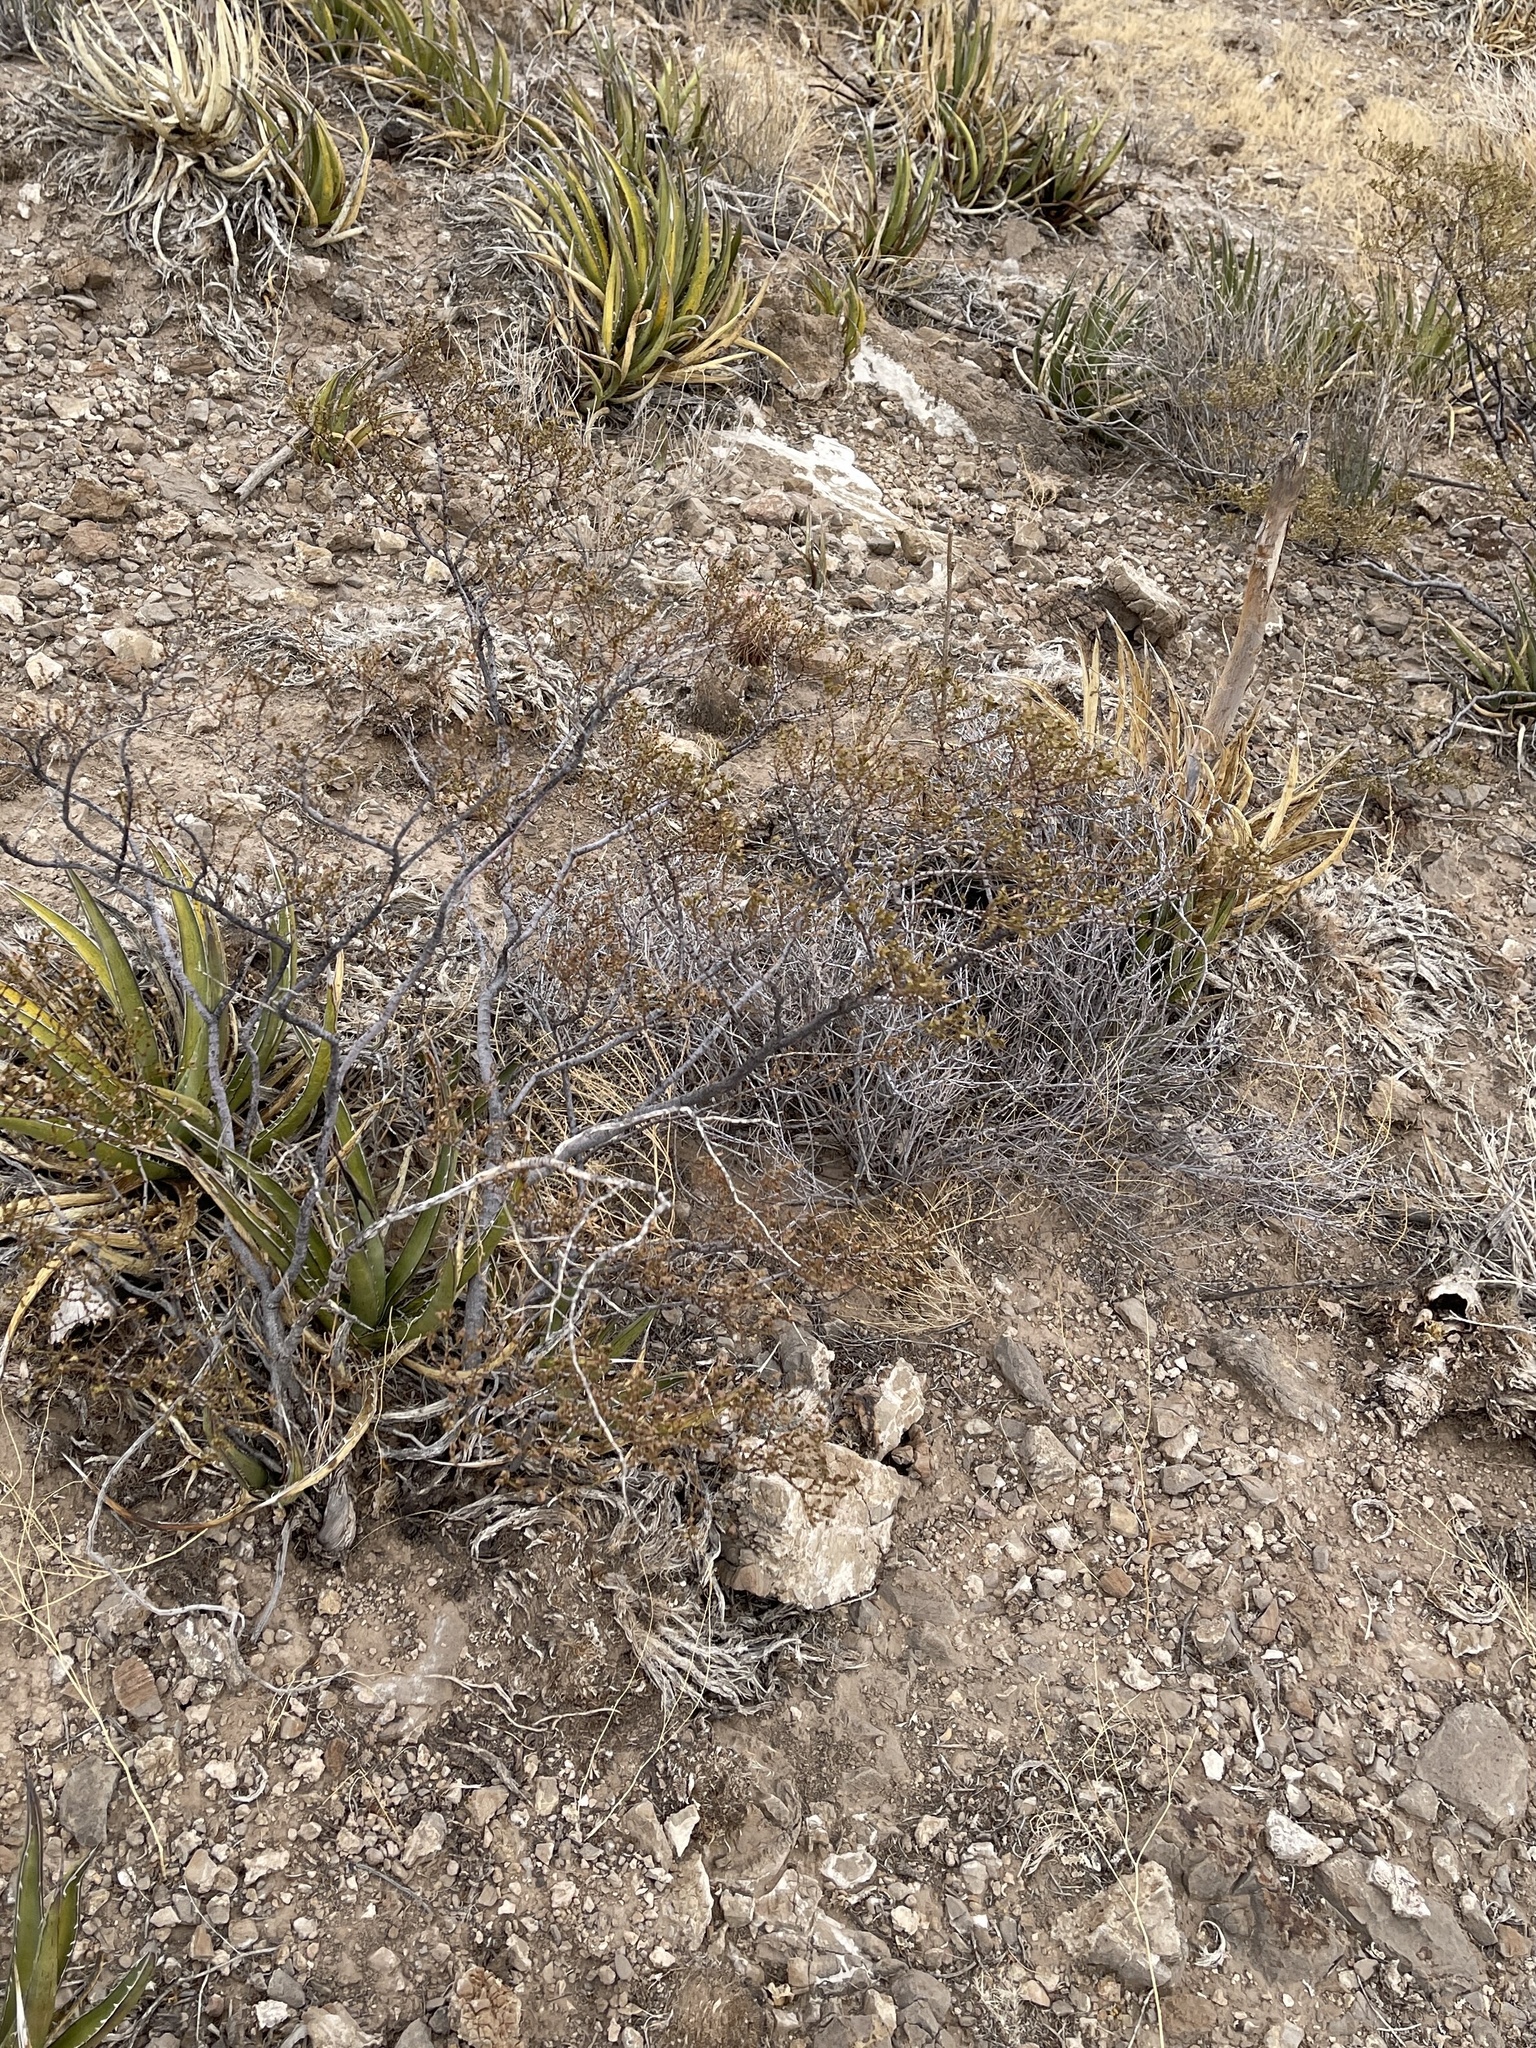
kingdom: Plantae
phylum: Tracheophyta
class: Magnoliopsida
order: Zygophyllales
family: Zygophyllaceae
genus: Larrea
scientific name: Larrea tridentata
